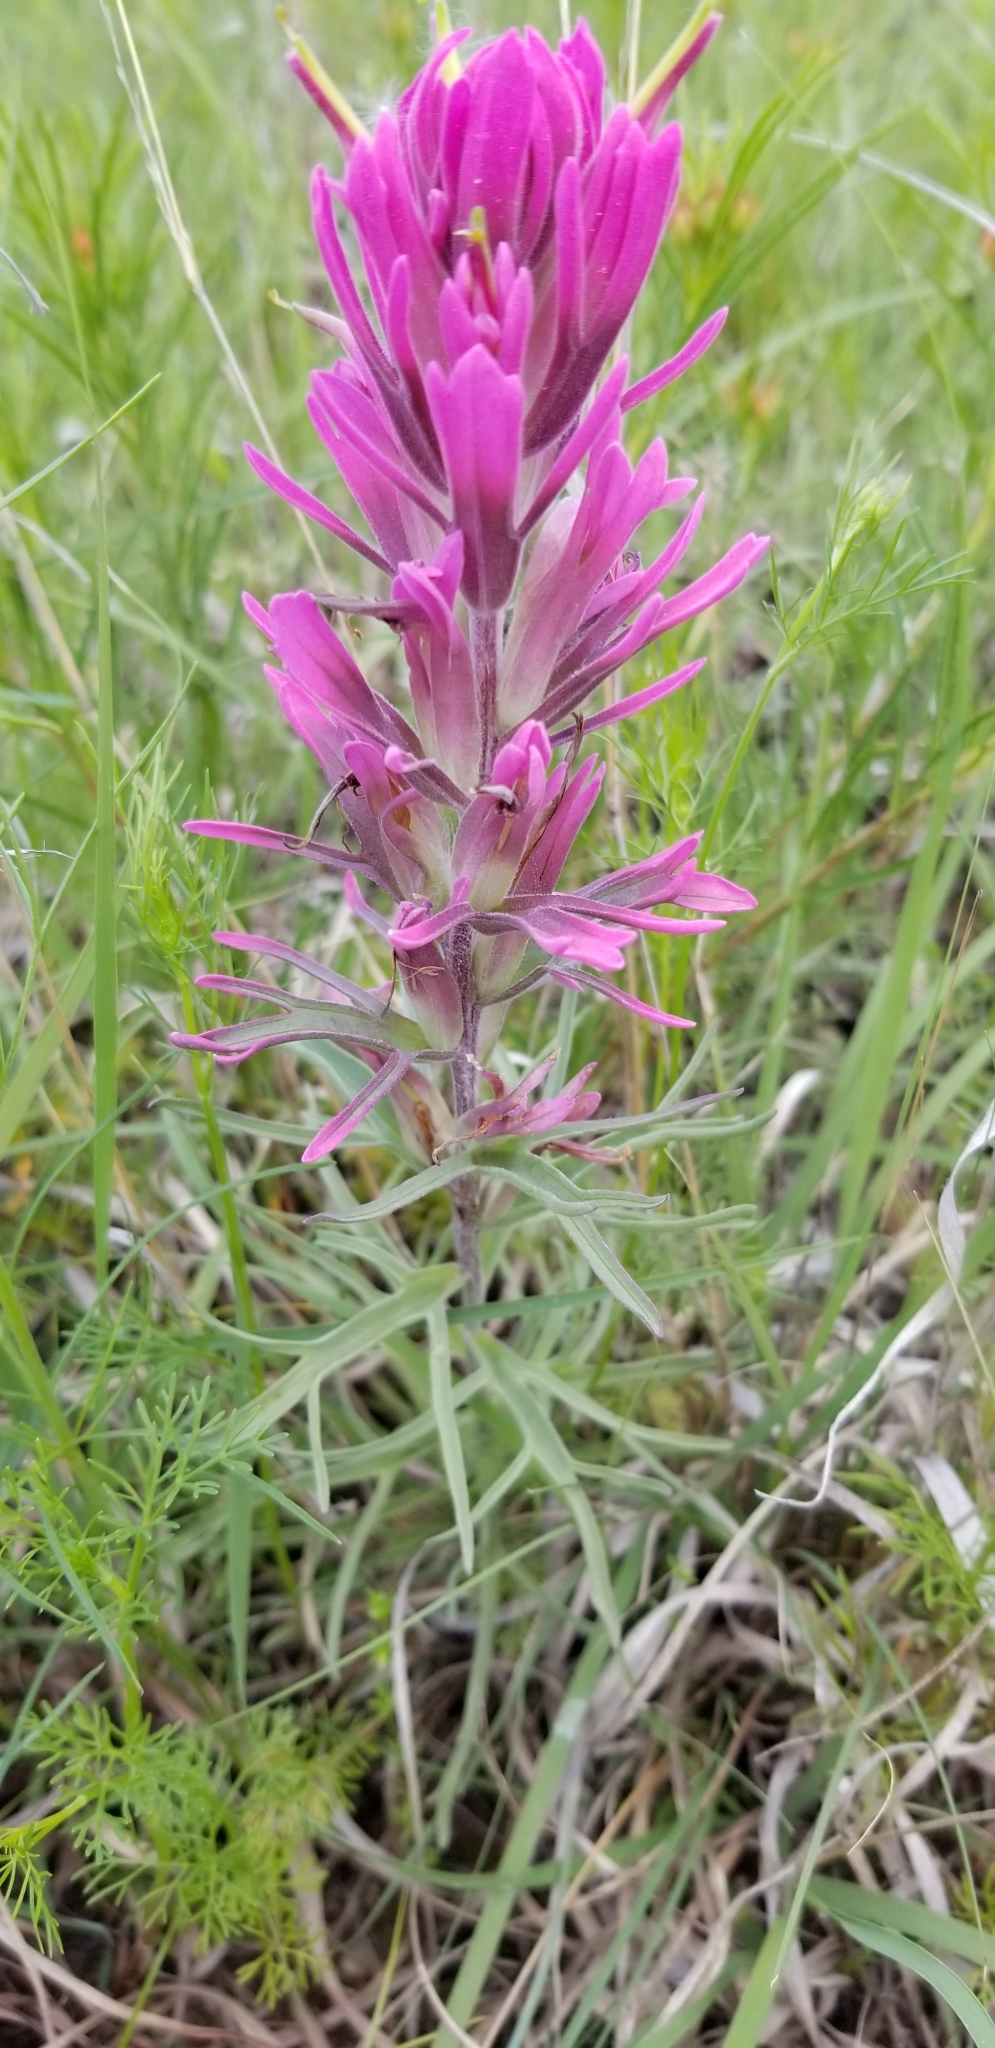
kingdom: Plantae
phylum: Tracheophyta
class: Magnoliopsida
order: Lamiales
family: Orobanchaceae
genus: Castilleja
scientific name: Castilleja purpurea
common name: Plains paintbrush
